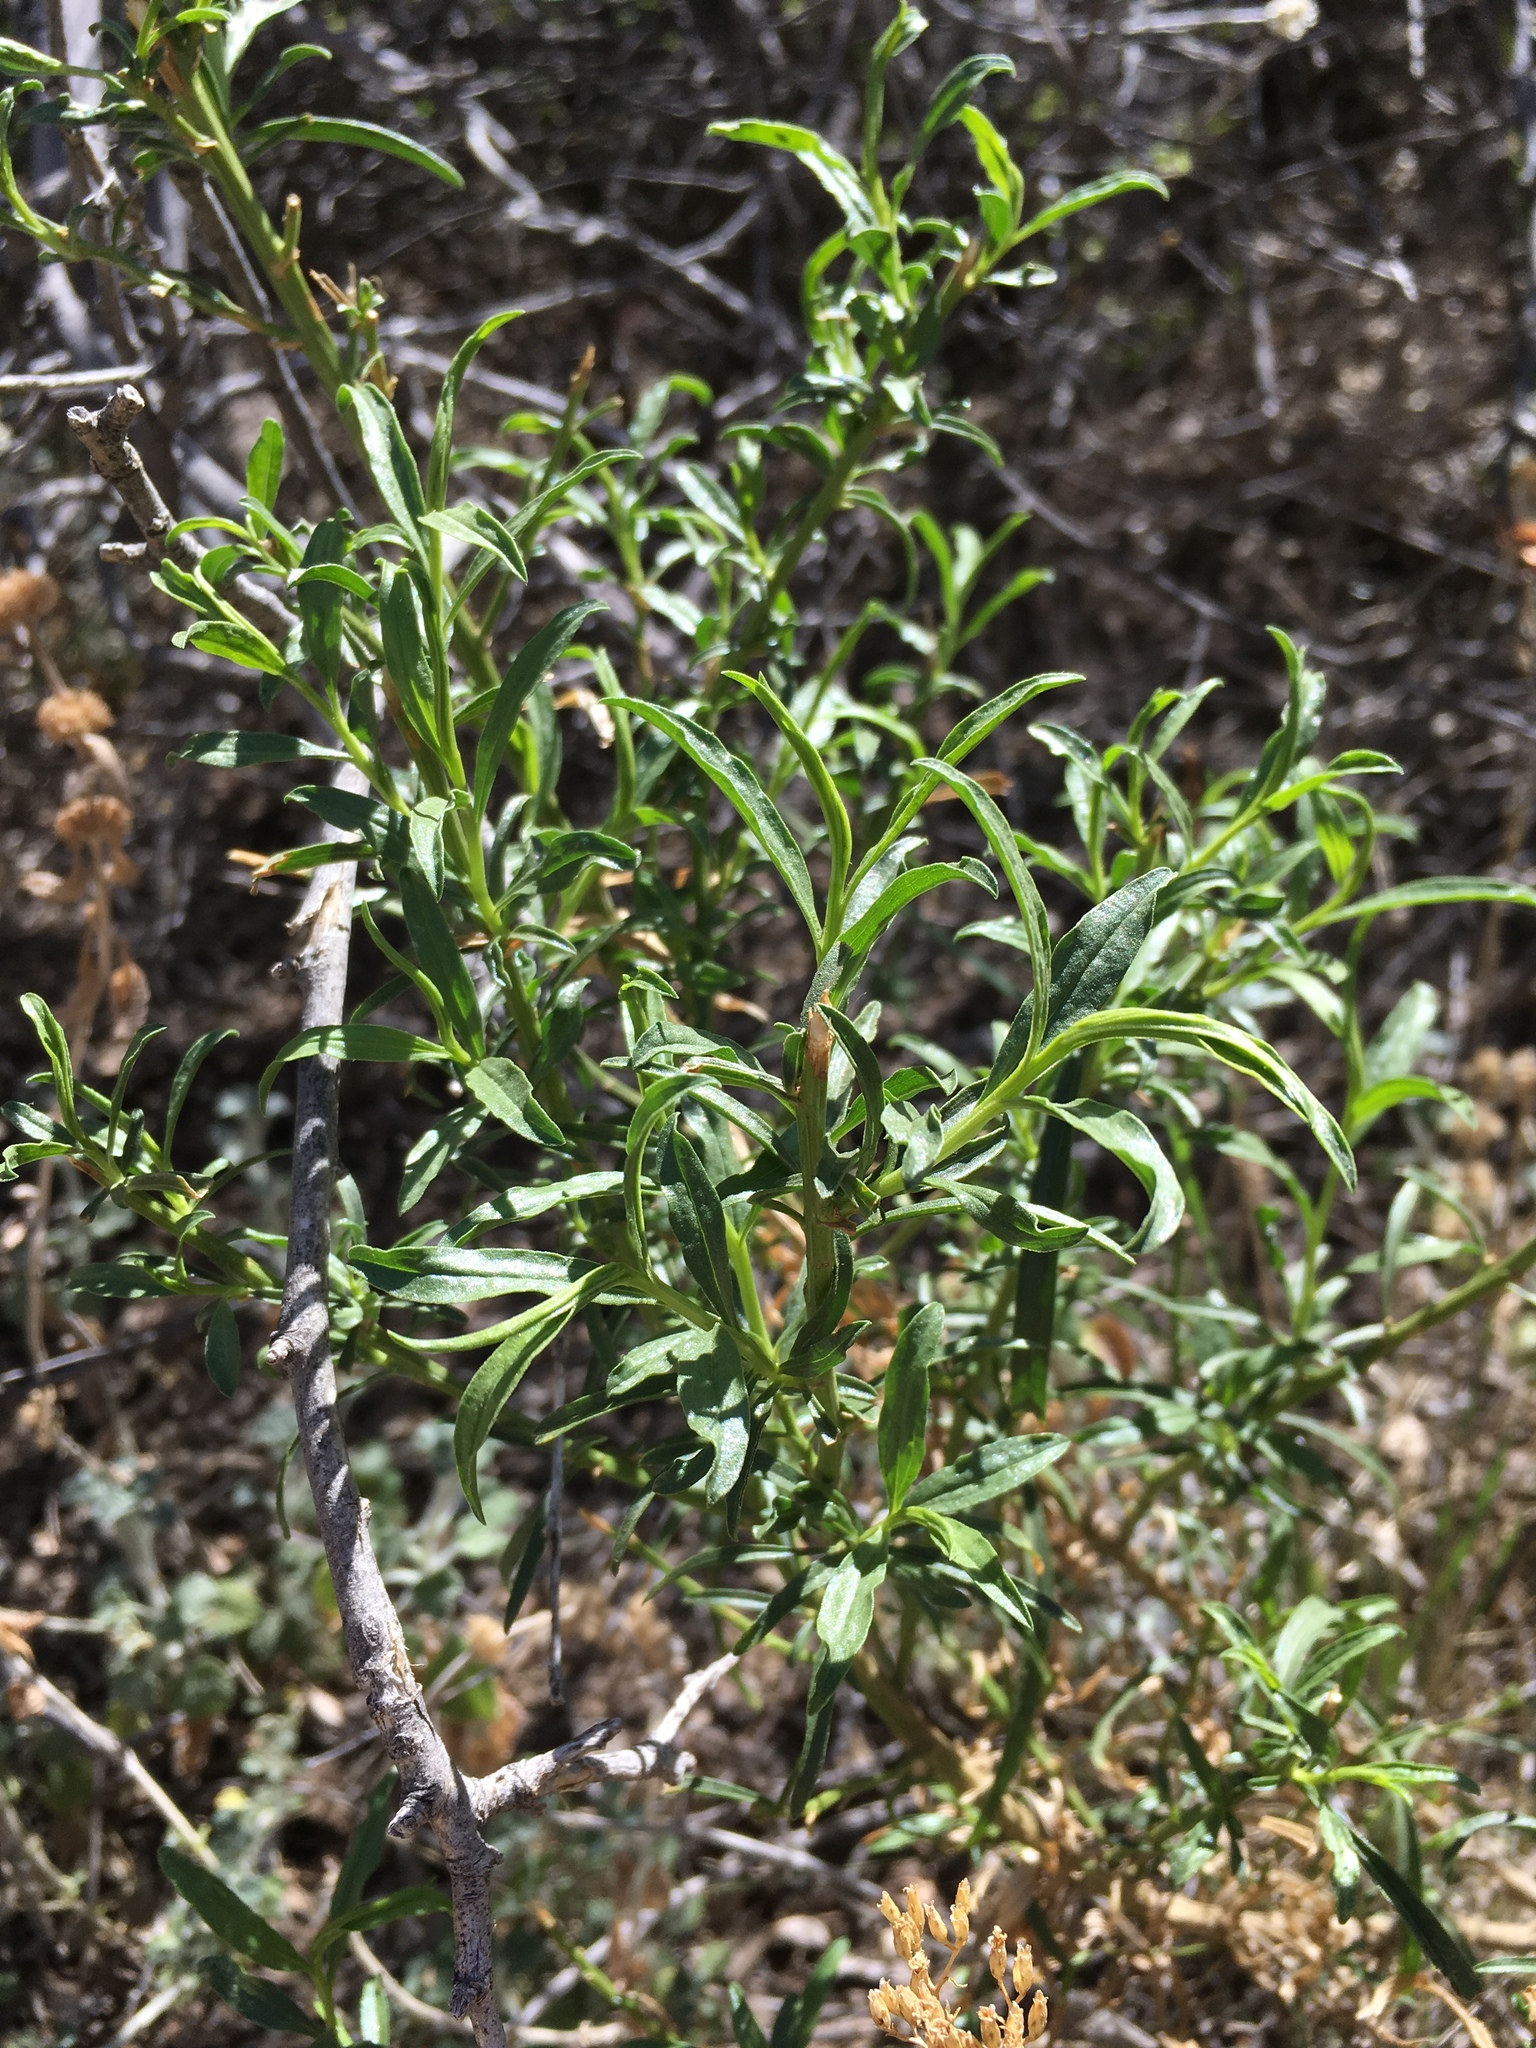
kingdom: Plantae
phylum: Tracheophyta
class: Magnoliopsida
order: Asterales
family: Asteraceae
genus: Gymnosperma
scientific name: Gymnosperma glutinosum
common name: Gumhead
